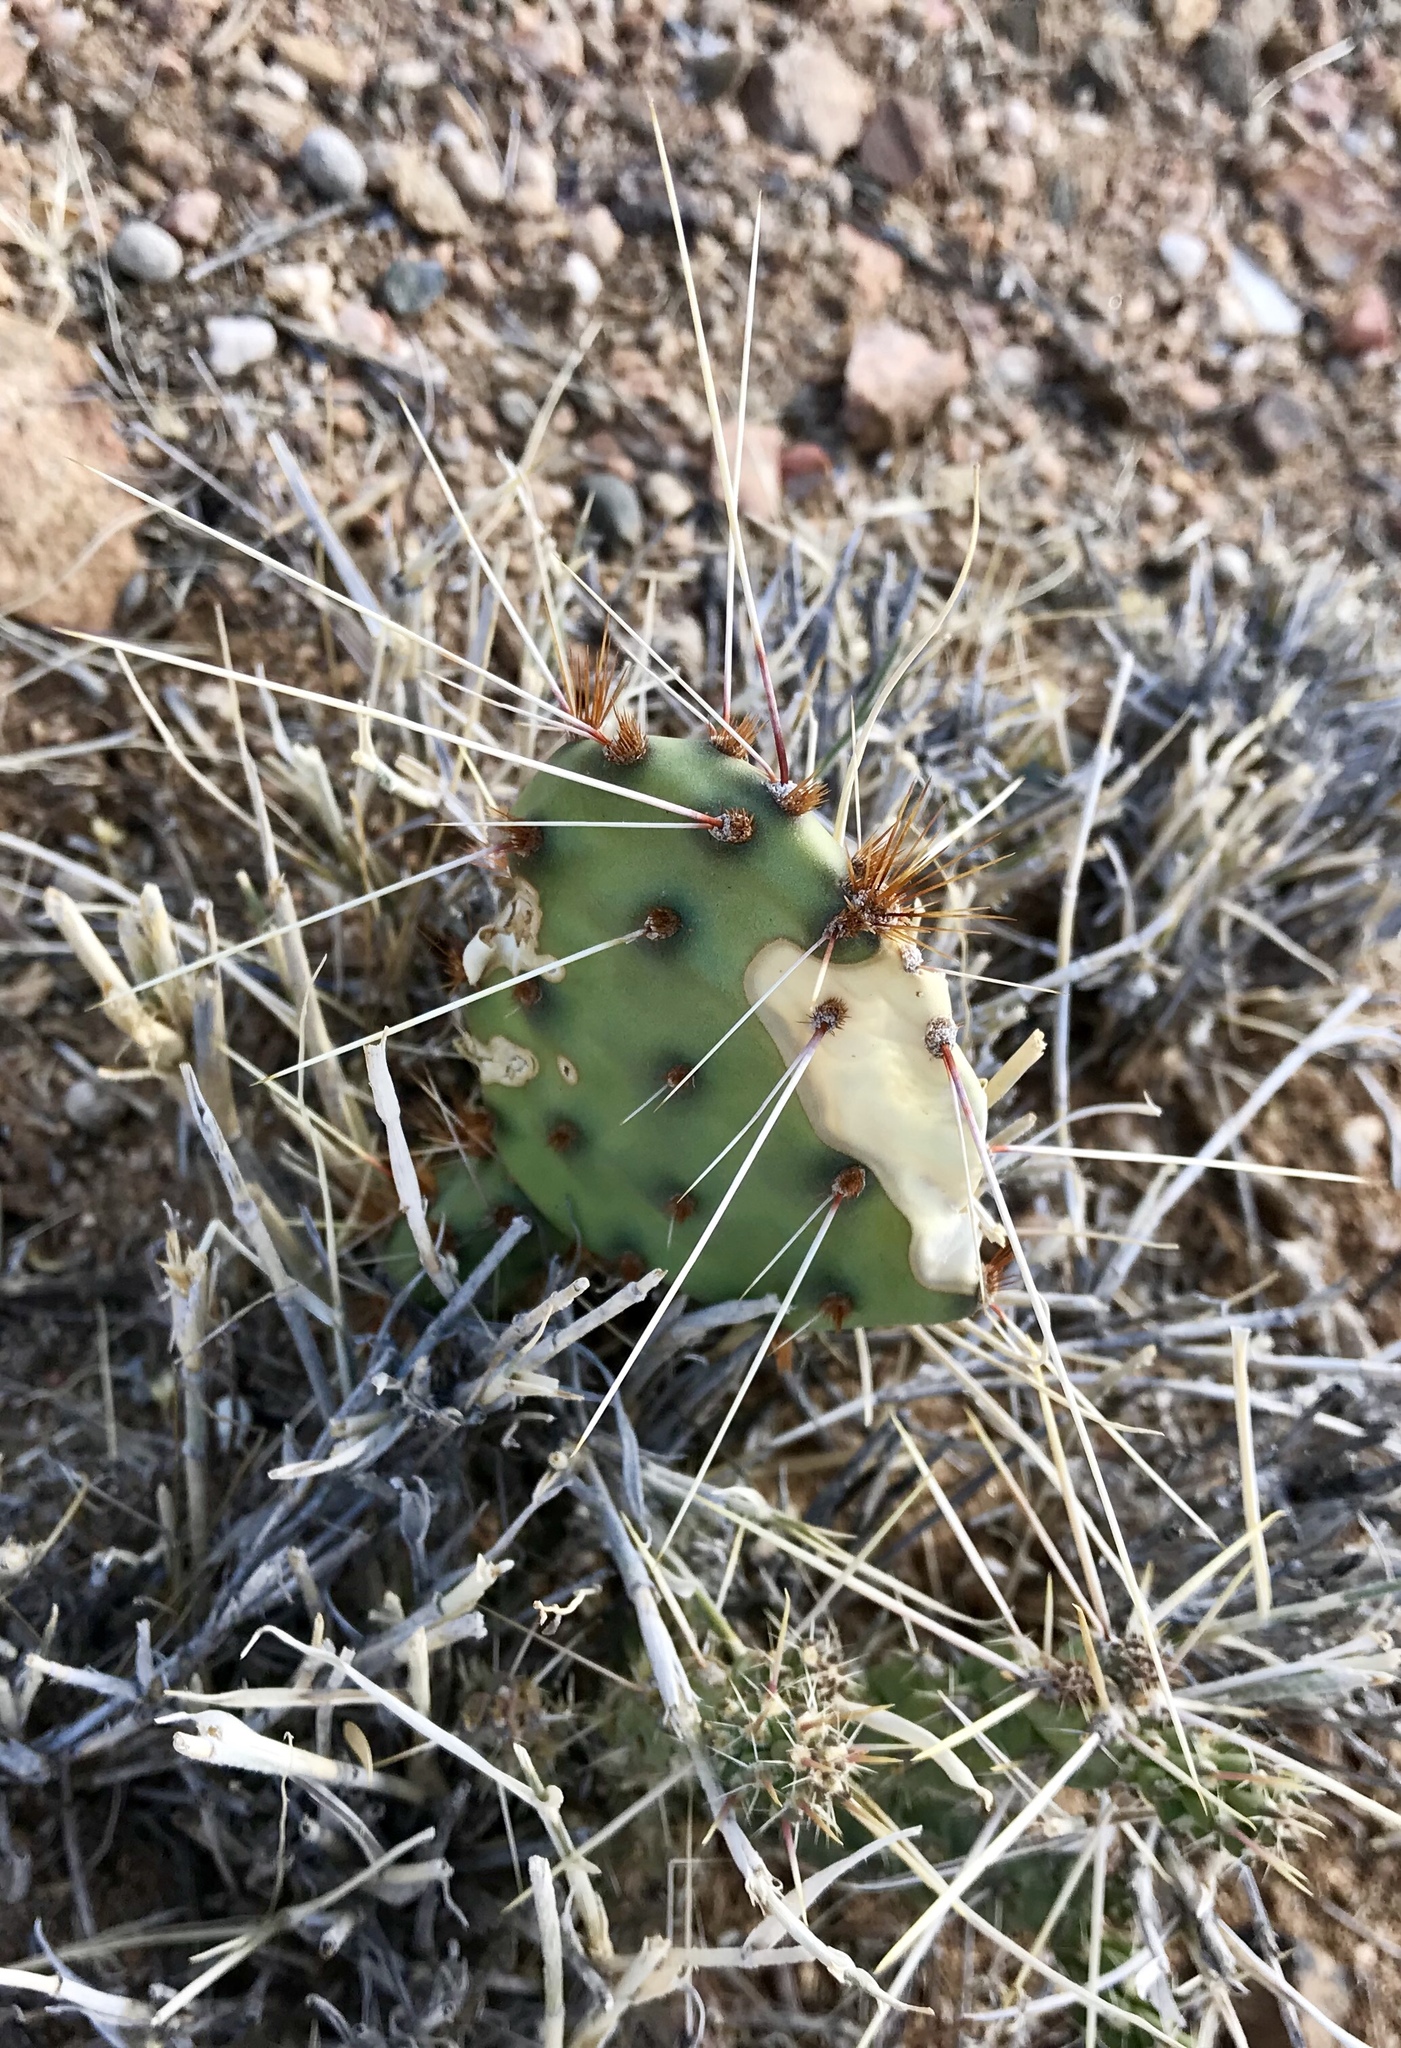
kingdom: Plantae
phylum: Tracheophyta
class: Magnoliopsida
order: Caryophyllales
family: Cactaceae
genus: Opuntia
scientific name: Opuntia phaeacantha
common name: New mexico prickly-pear
